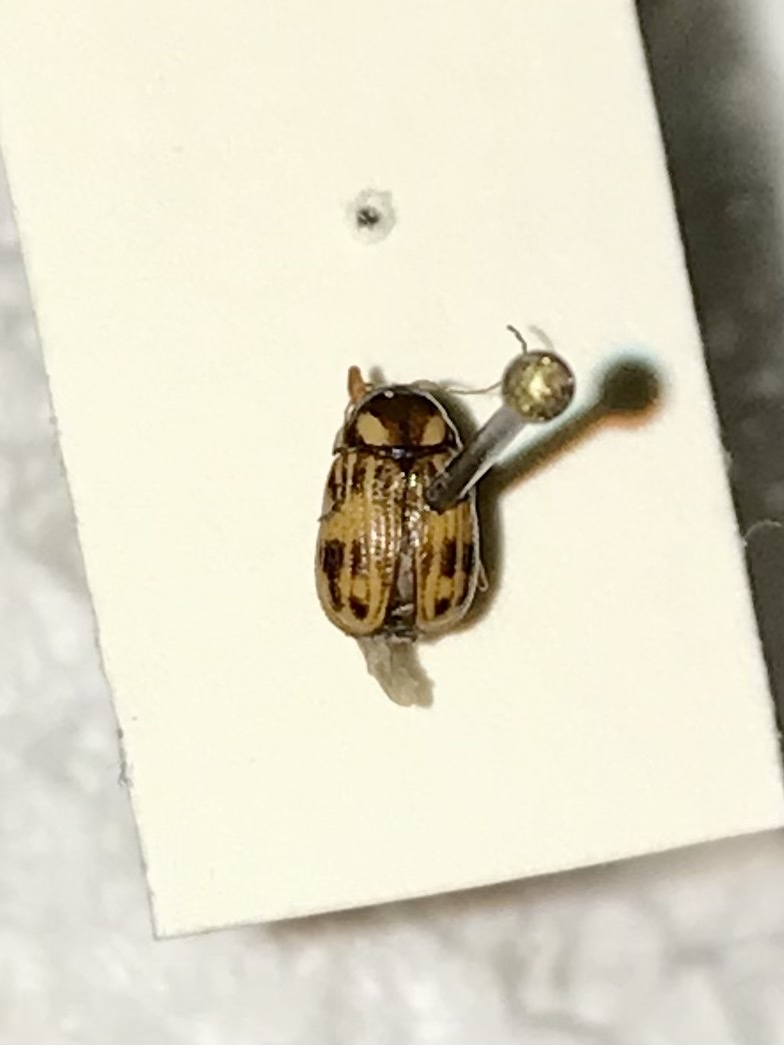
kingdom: Animalia
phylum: Arthropoda
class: Insecta
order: Coleoptera
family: Chrysomelidae
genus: Bassareus
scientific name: Bassareus formosus
